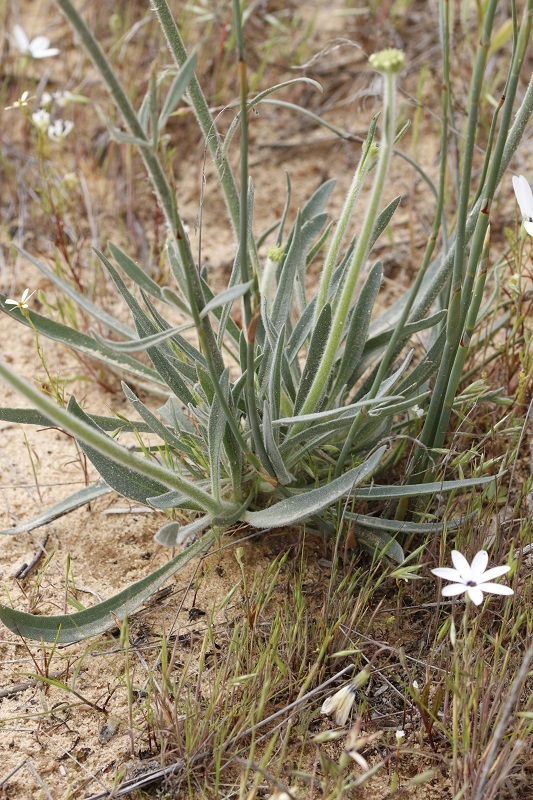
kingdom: Plantae
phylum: Tracheophyta
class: Magnoliopsida
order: Lamiales
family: Scrophulariaceae
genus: Manulea
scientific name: Manulea corymbosa
